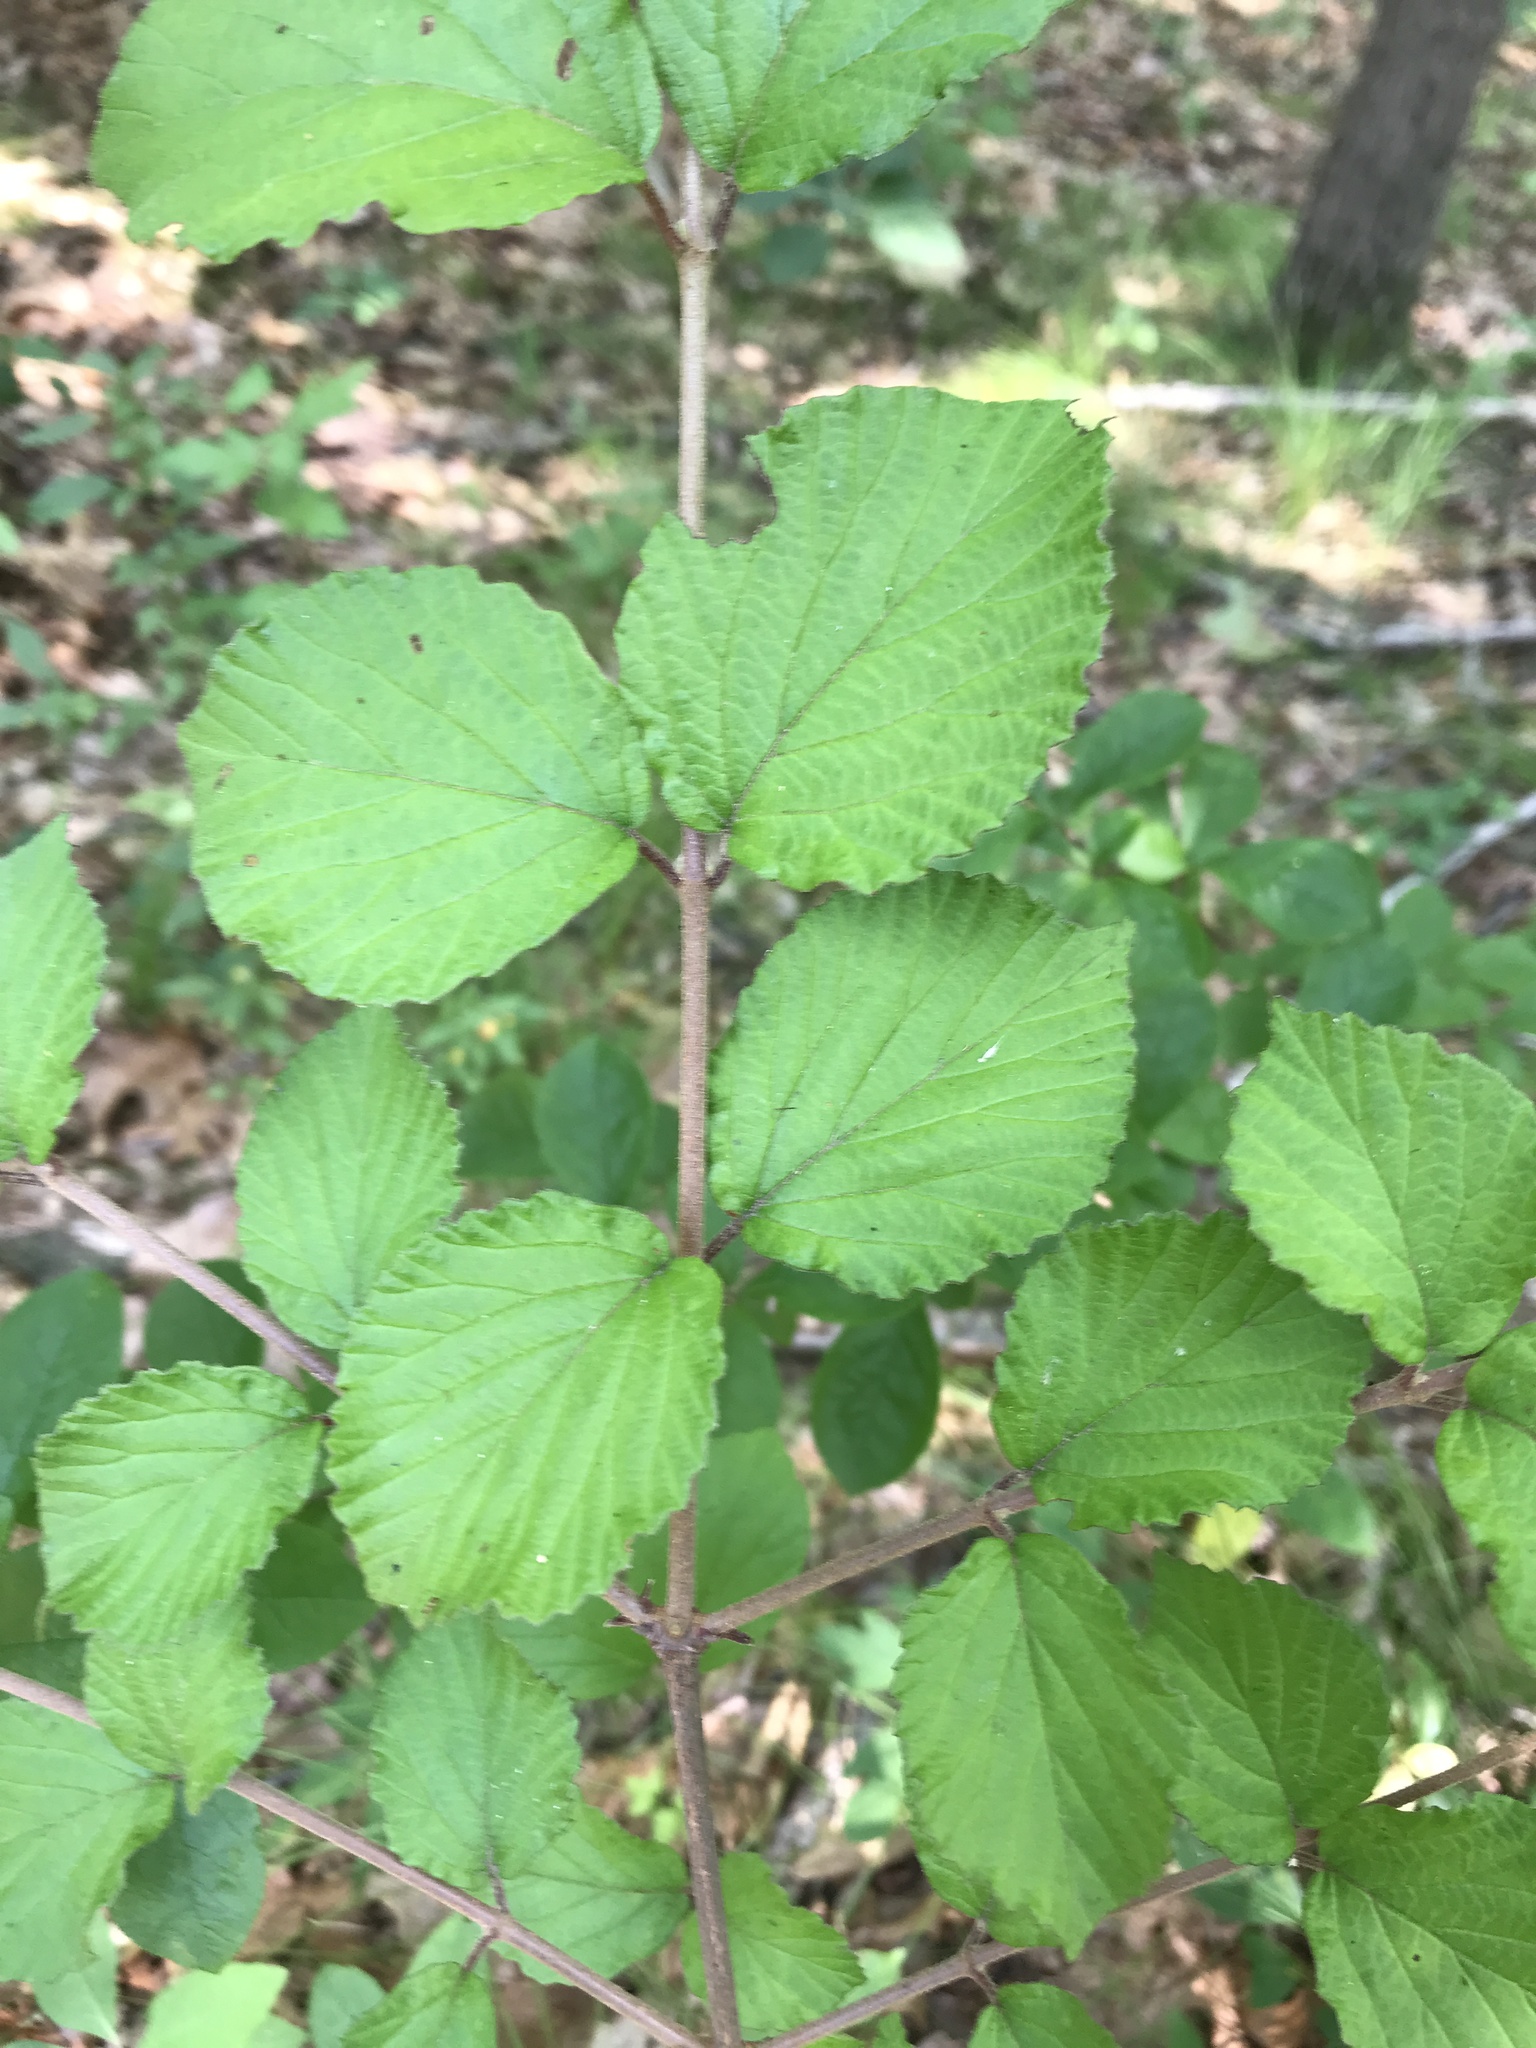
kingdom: Plantae
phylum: Tracheophyta
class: Magnoliopsida
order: Dipsacales
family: Viburnaceae
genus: Viburnum
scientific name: Viburnum dilatatum
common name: Linden arrowwood
